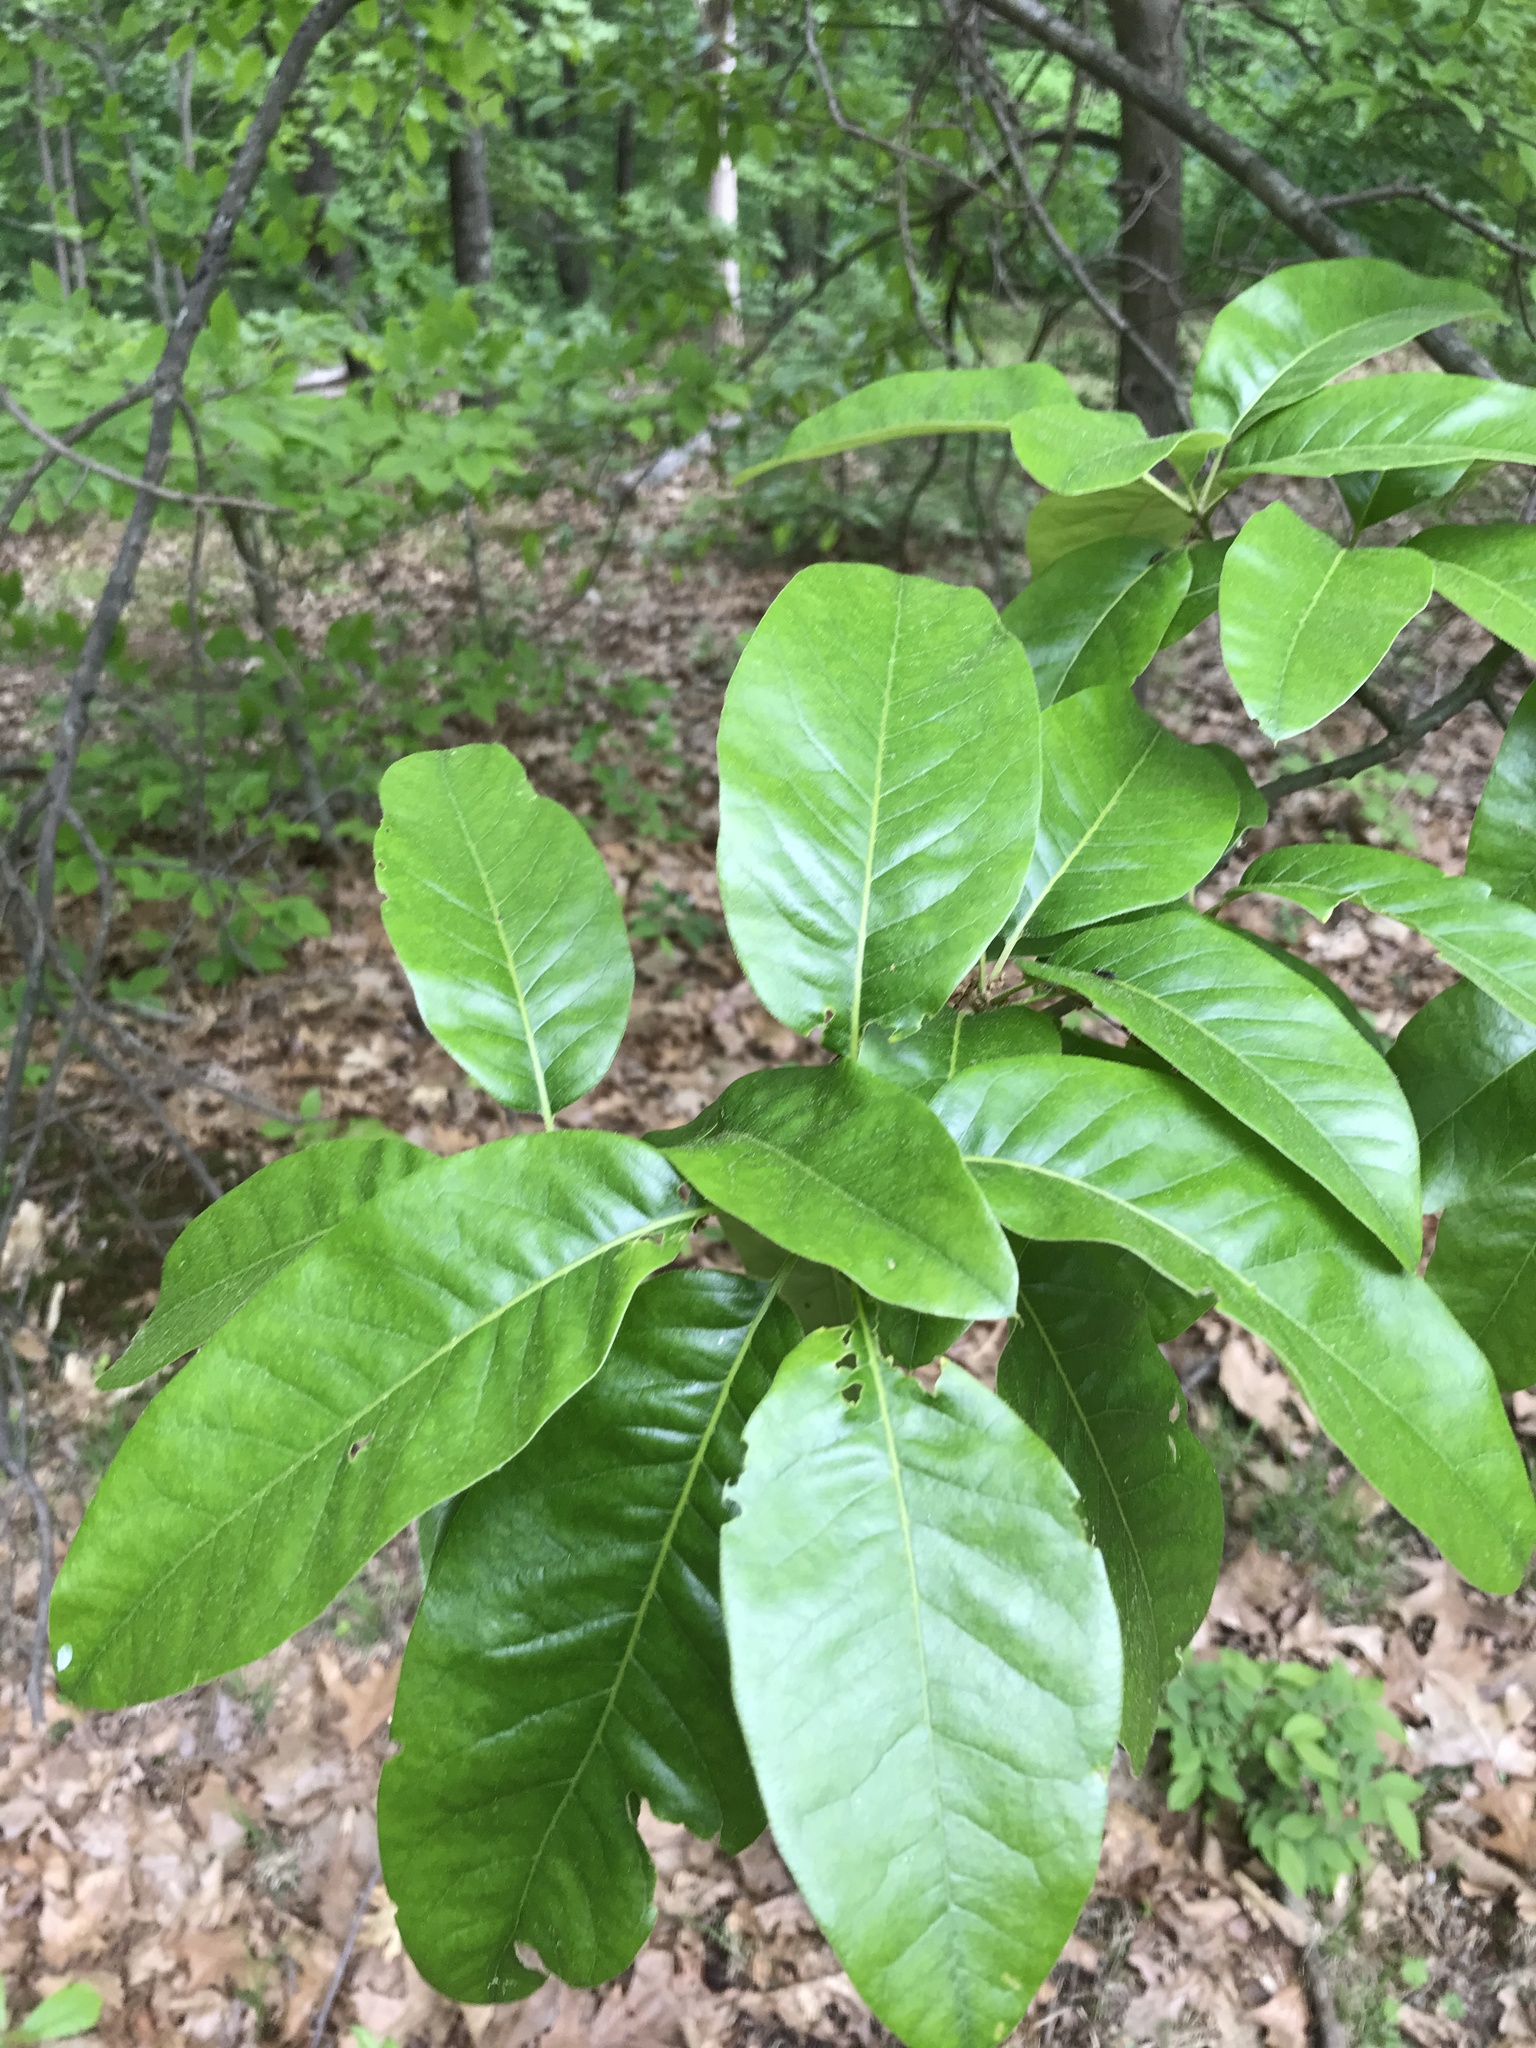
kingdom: Plantae
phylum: Tracheophyta
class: Magnoliopsida
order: Fagales
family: Fagaceae
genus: Quercus
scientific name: Quercus imbricaria
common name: Shingle oak
